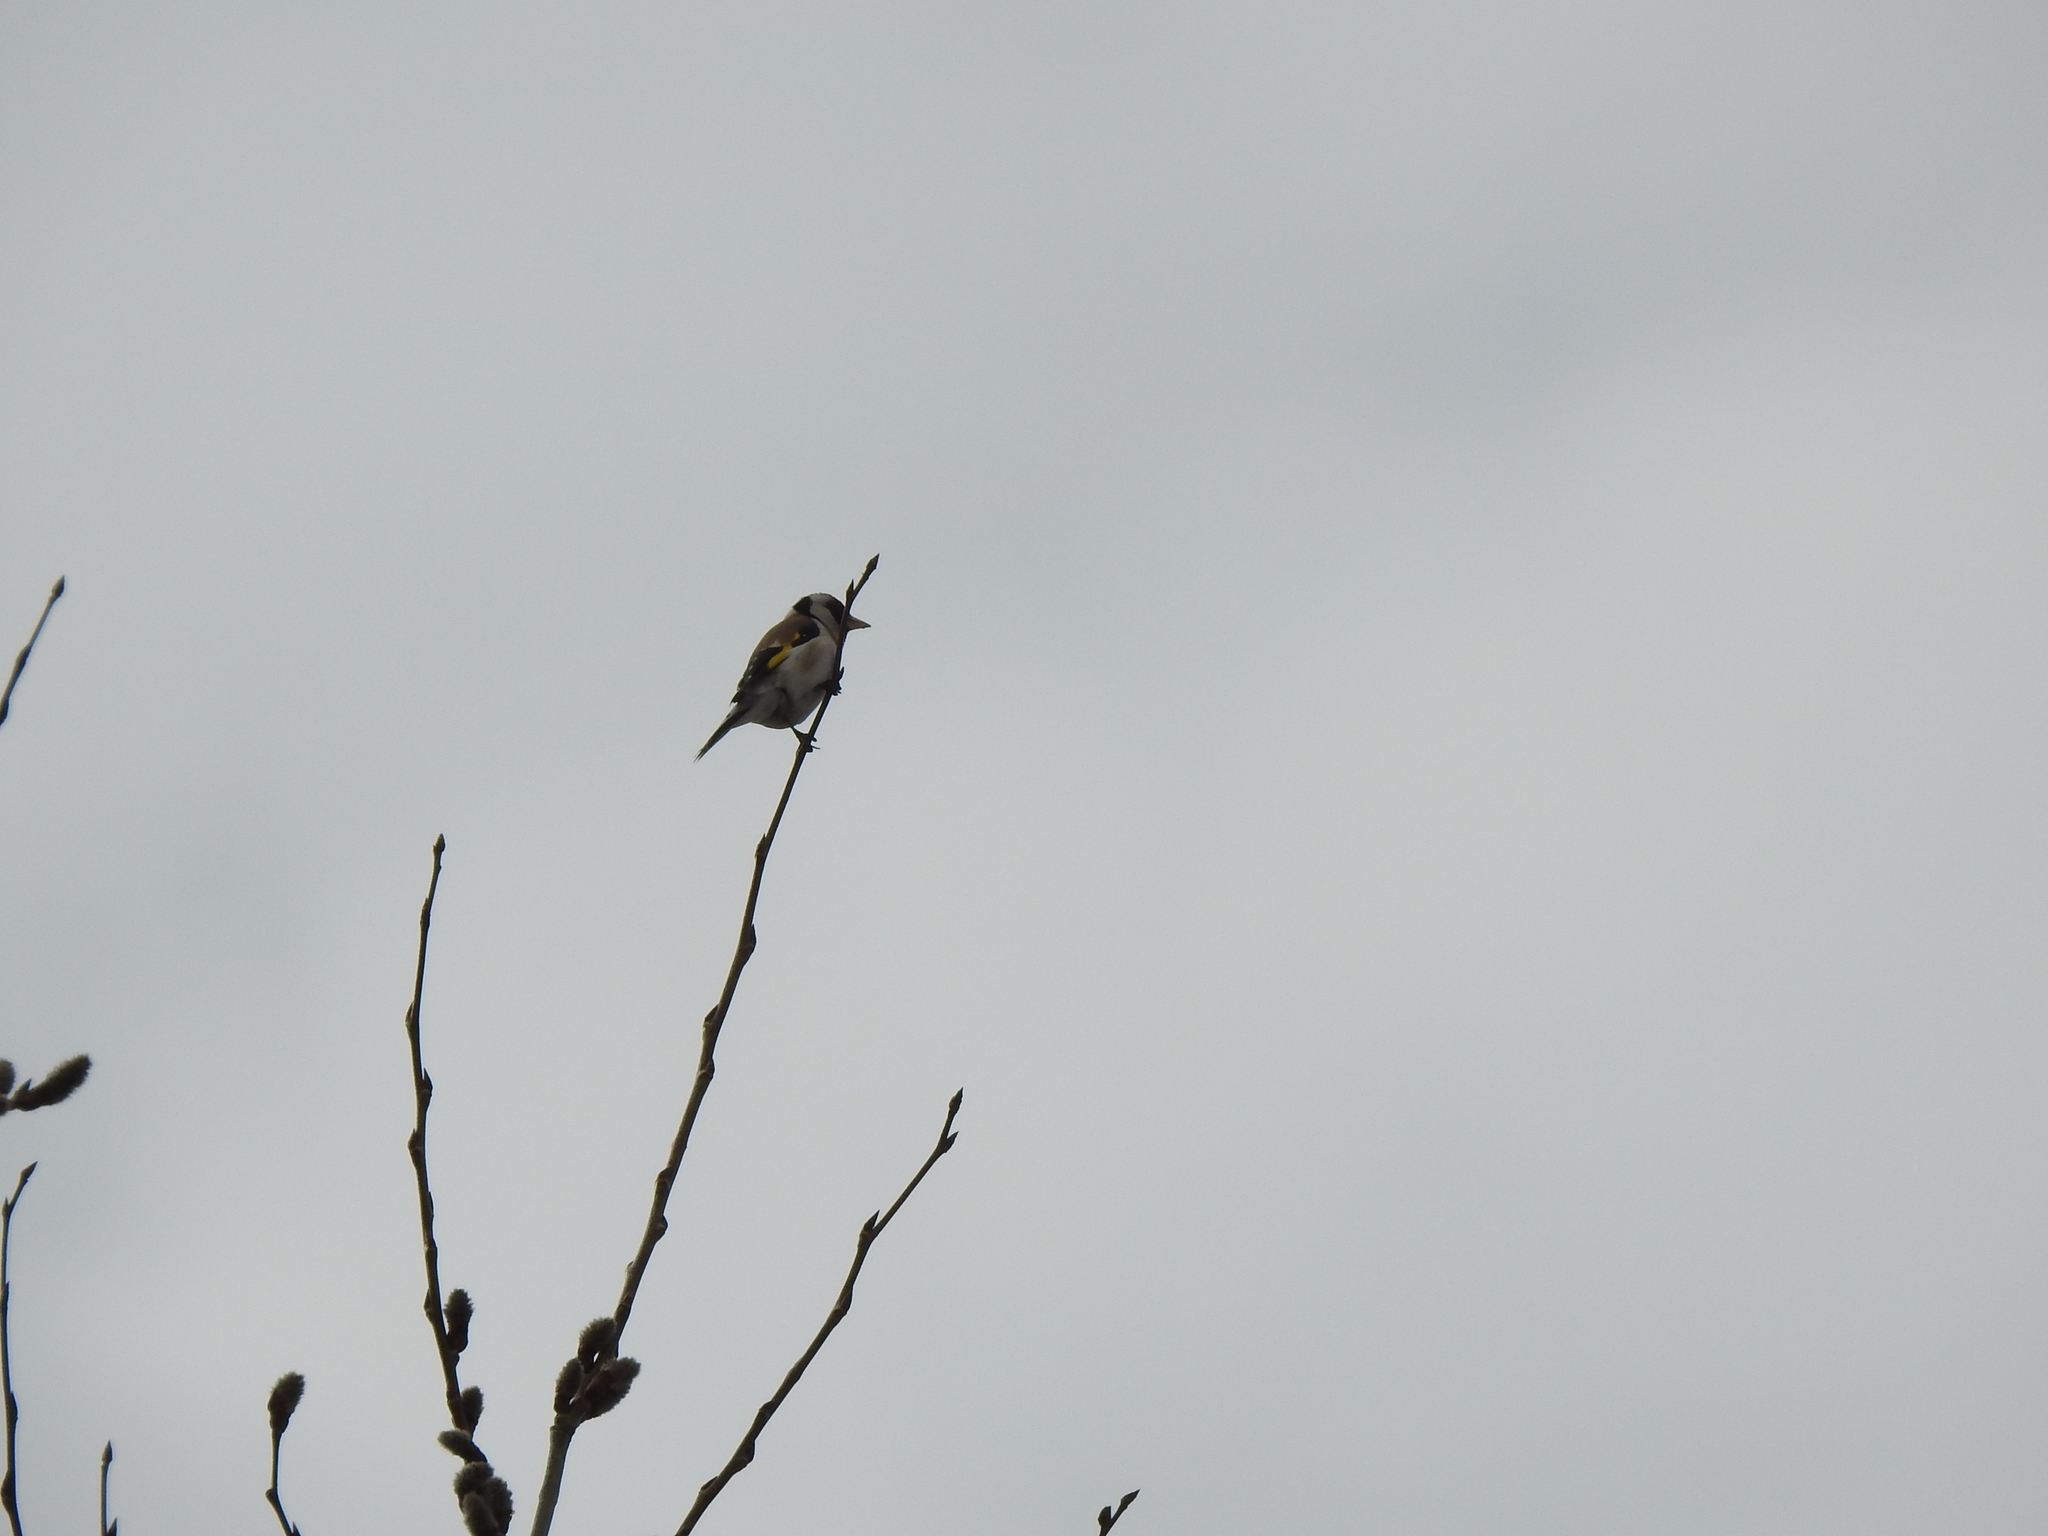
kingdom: Animalia
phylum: Chordata
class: Aves
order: Passeriformes
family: Fringillidae
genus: Carduelis
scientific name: Carduelis carduelis
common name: European goldfinch
